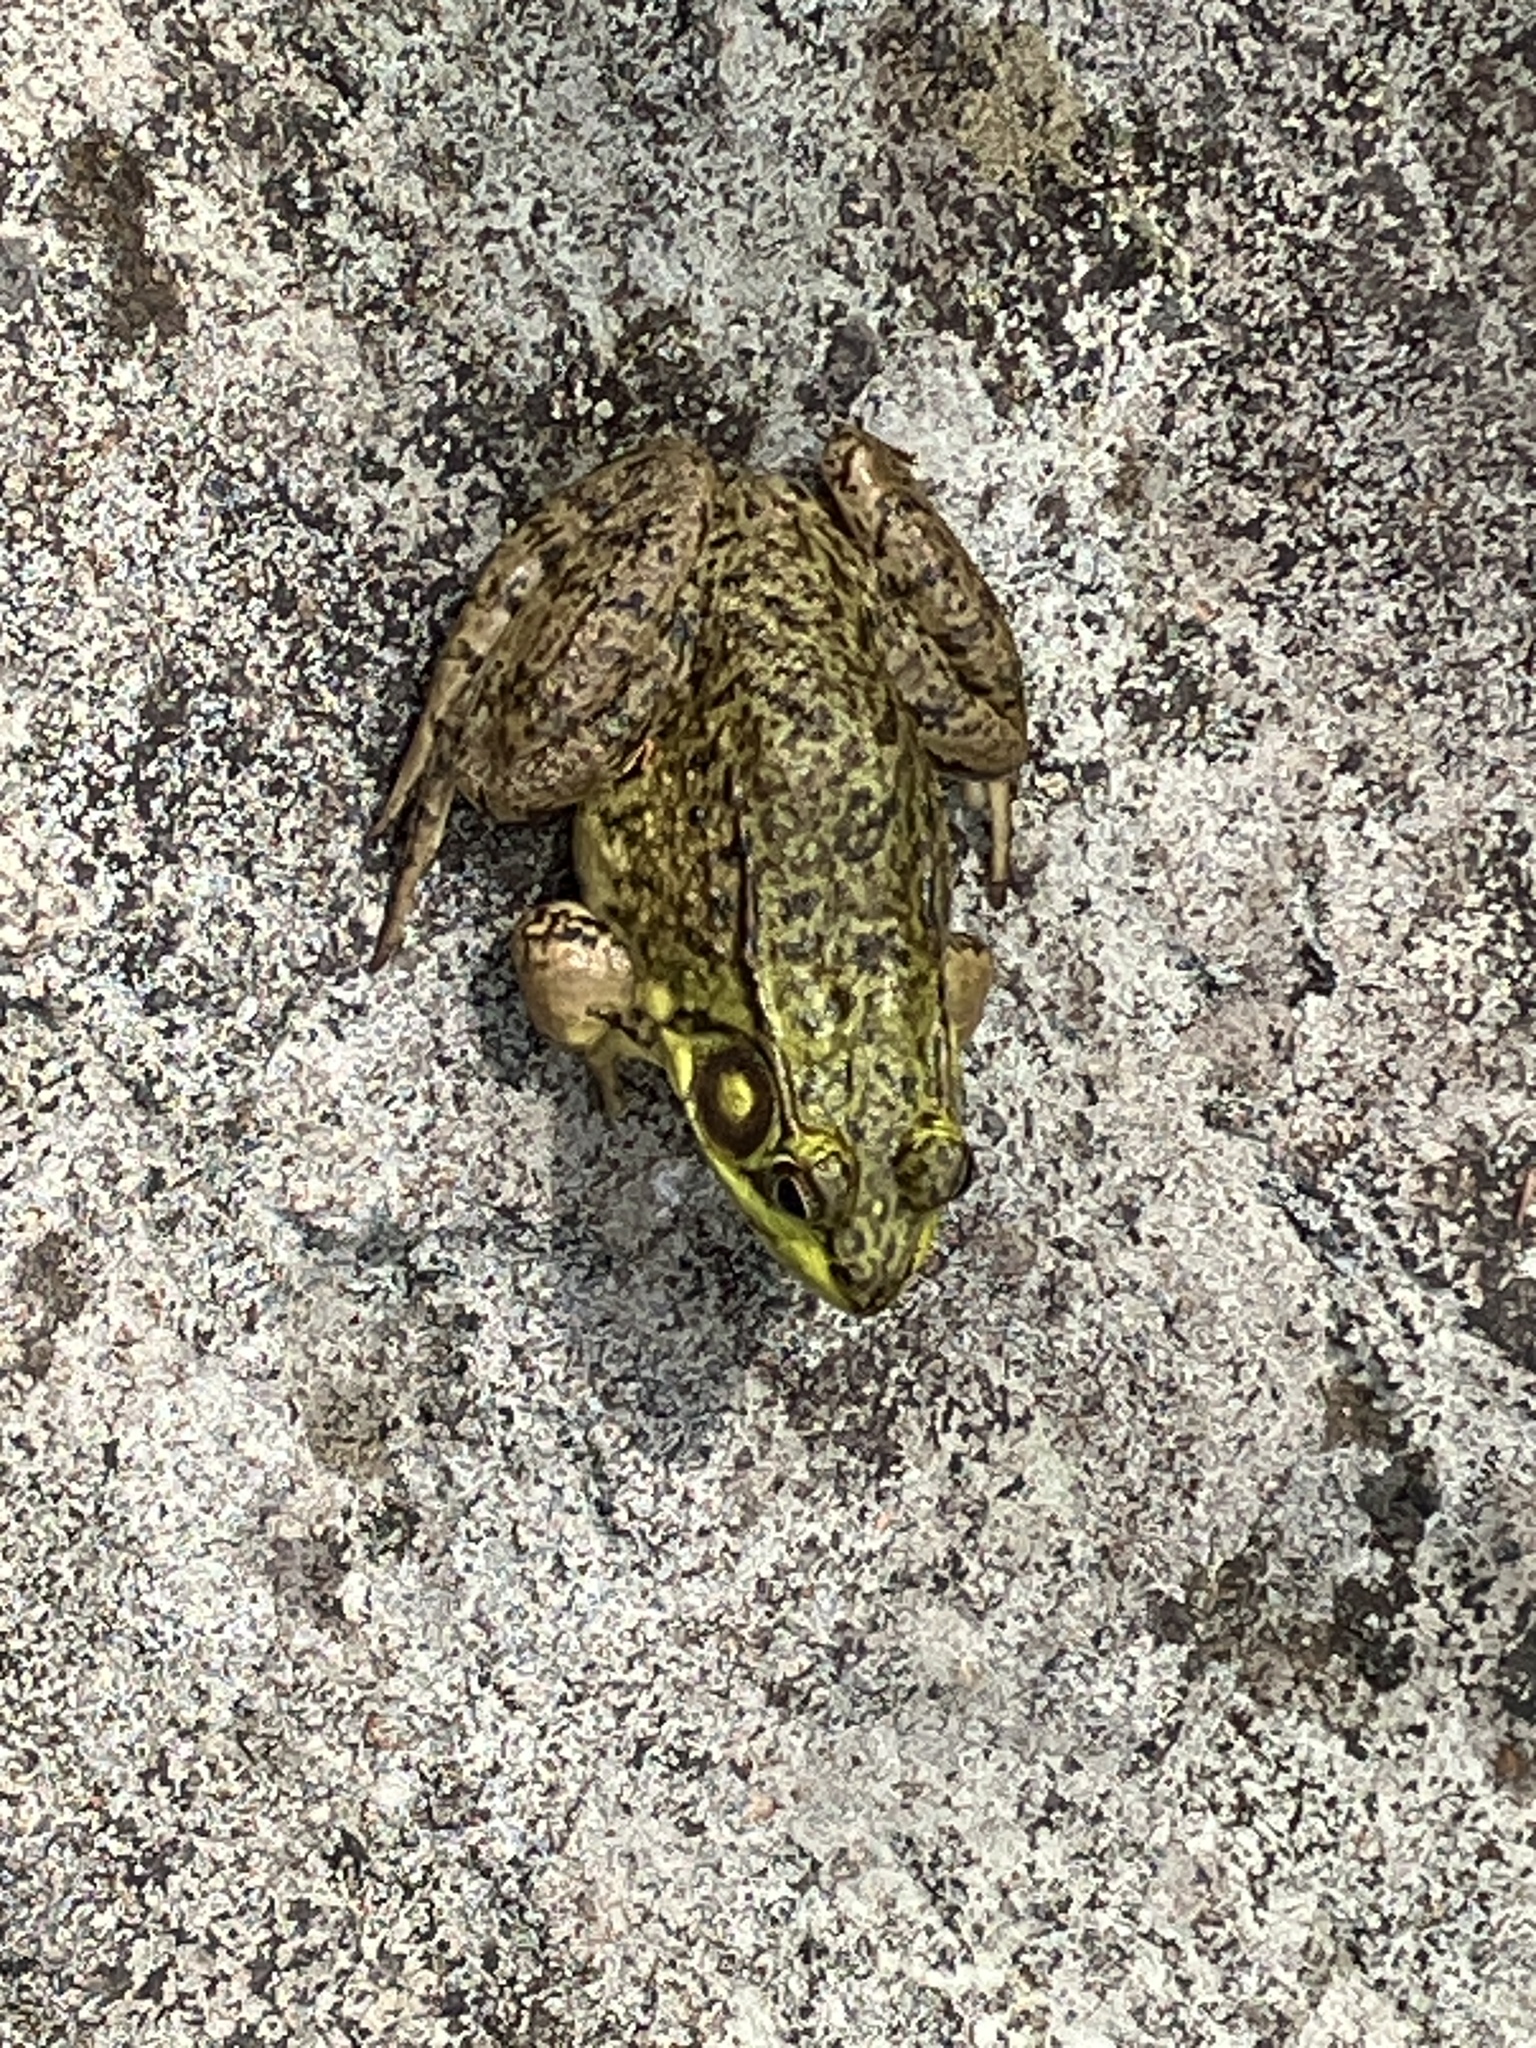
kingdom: Animalia
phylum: Chordata
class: Amphibia
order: Anura
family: Ranidae
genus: Lithobates
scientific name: Lithobates clamitans
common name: Green frog
